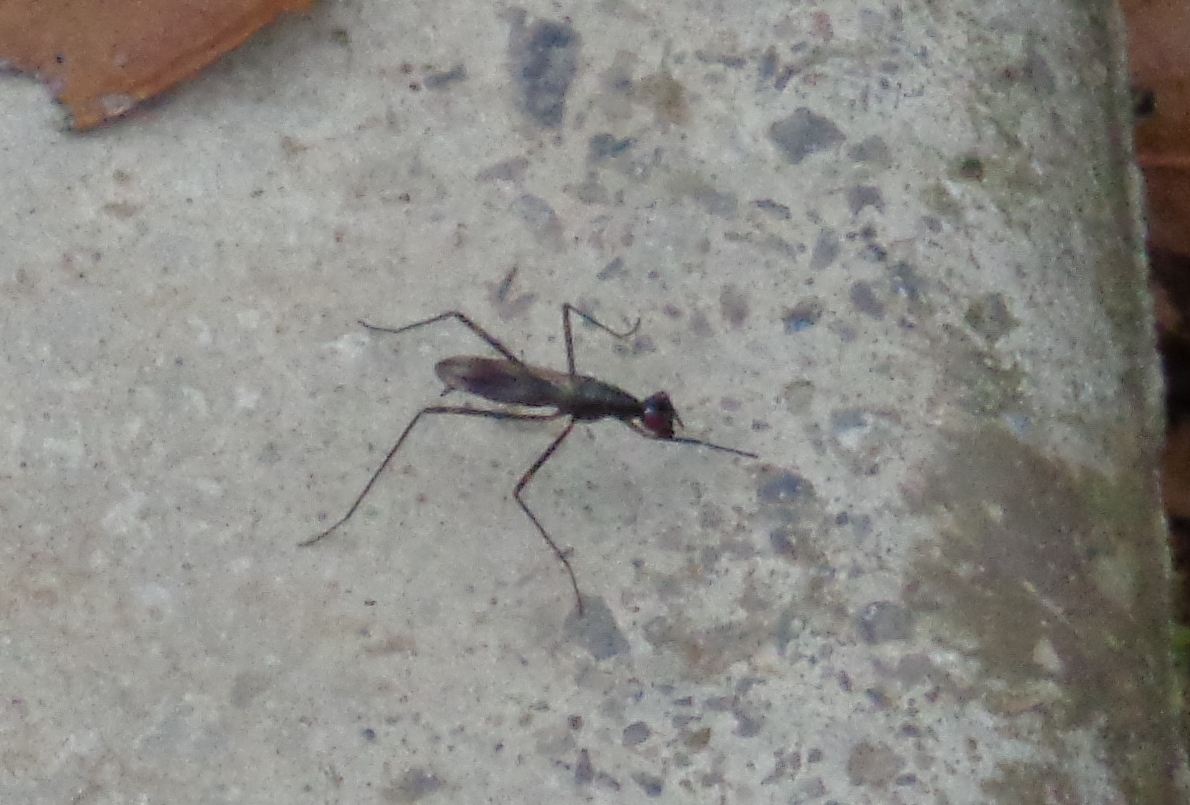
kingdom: Animalia
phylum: Arthropoda
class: Insecta
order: Diptera
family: Micropezidae
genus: Rainieria
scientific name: Rainieria antennaepes
